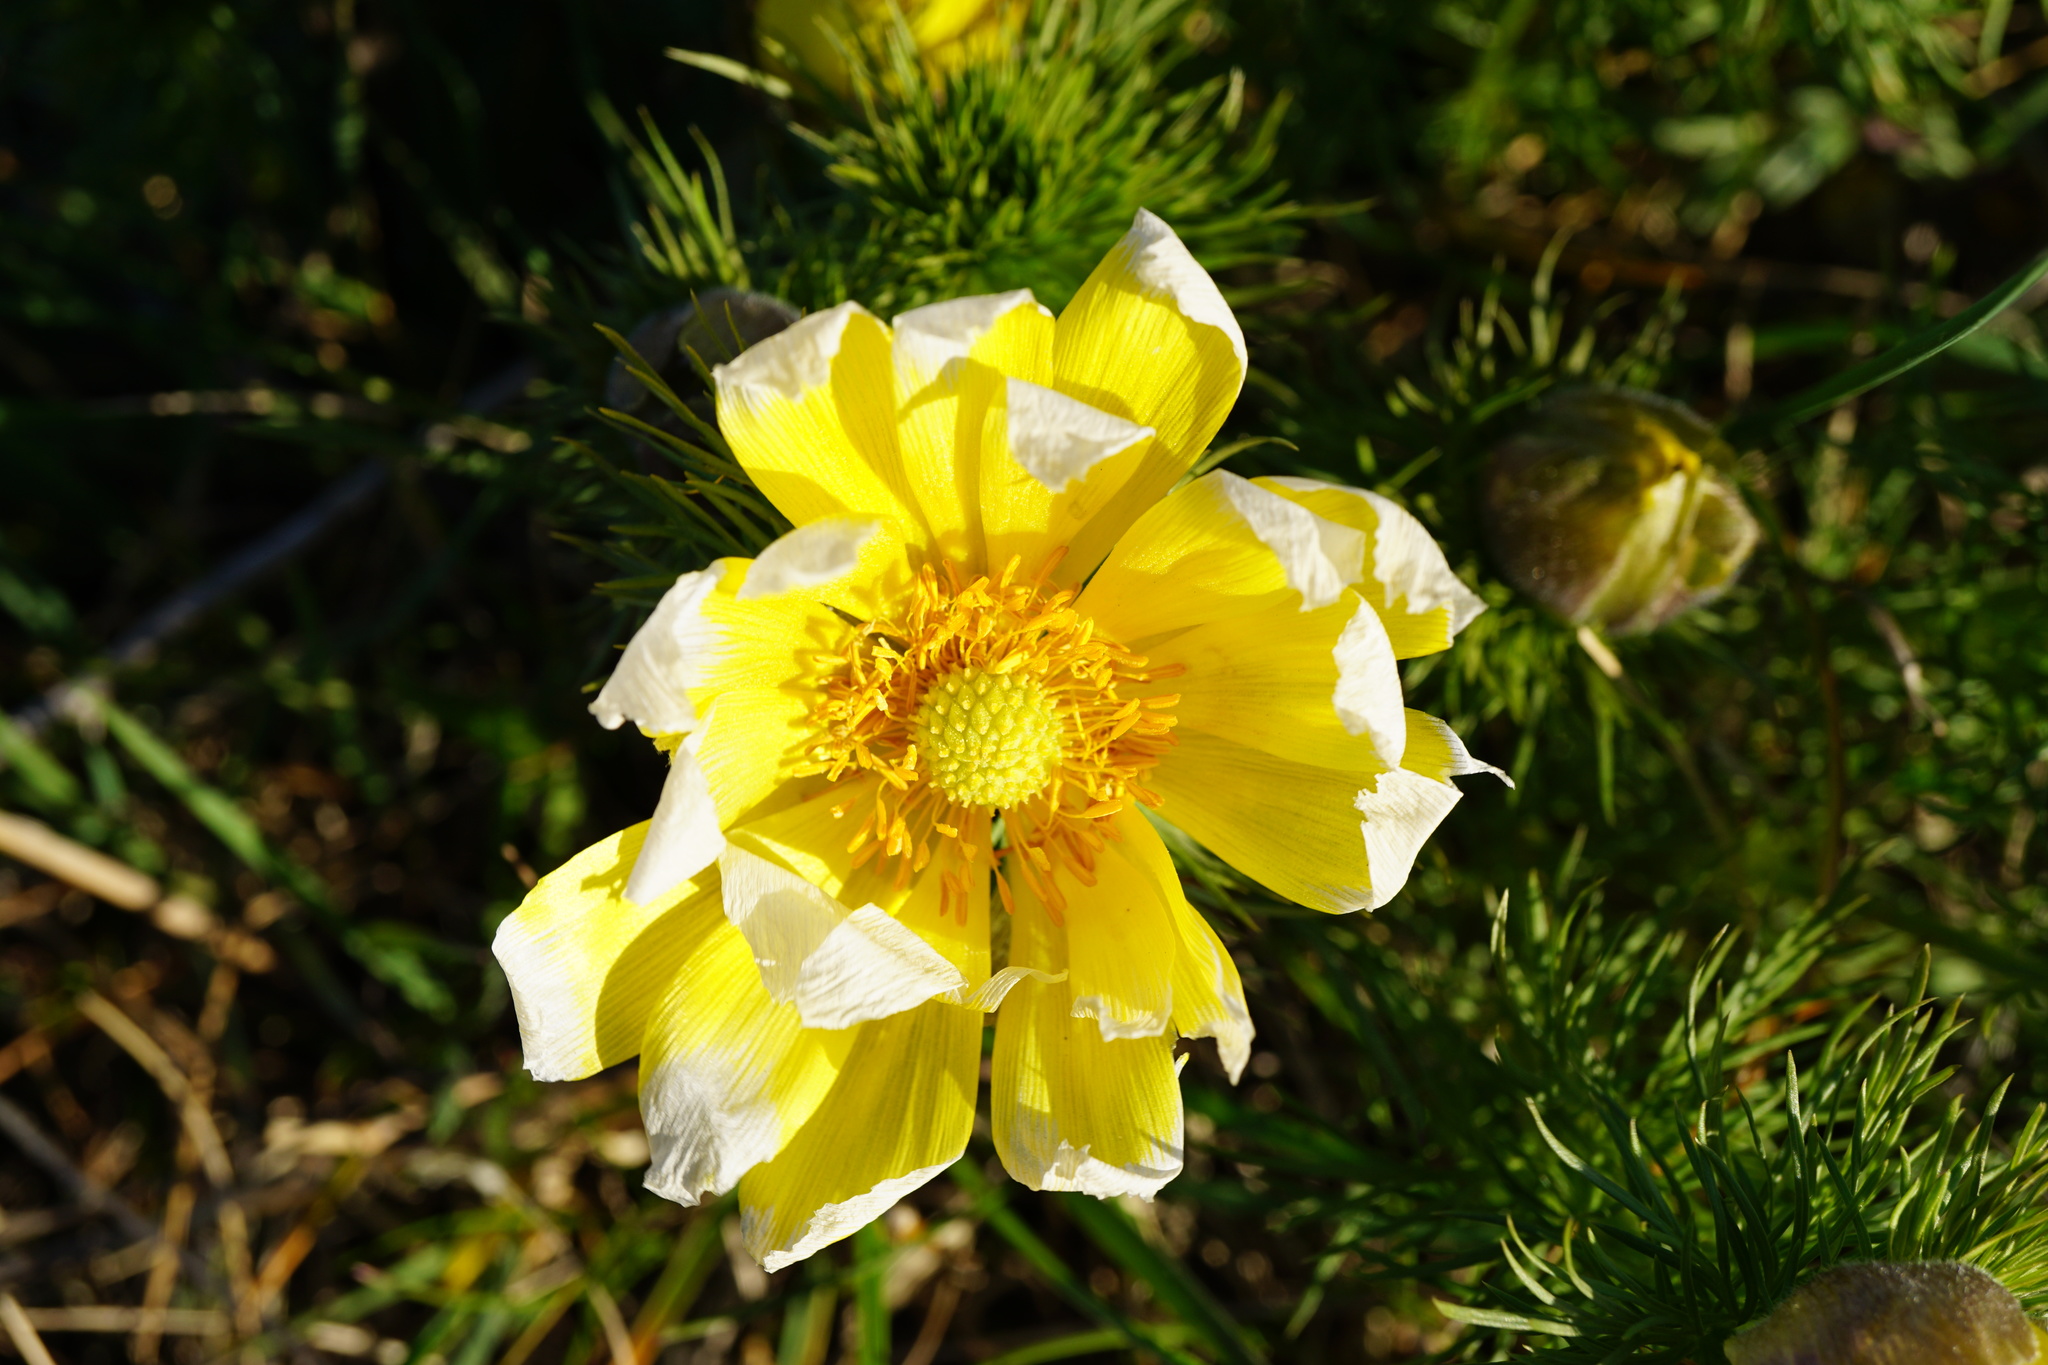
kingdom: Plantae
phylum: Tracheophyta
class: Magnoliopsida
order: Ranunculales
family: Ranunculaceae
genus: Adonis
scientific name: Adonis vernalis
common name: Yellow pheasants-eye
